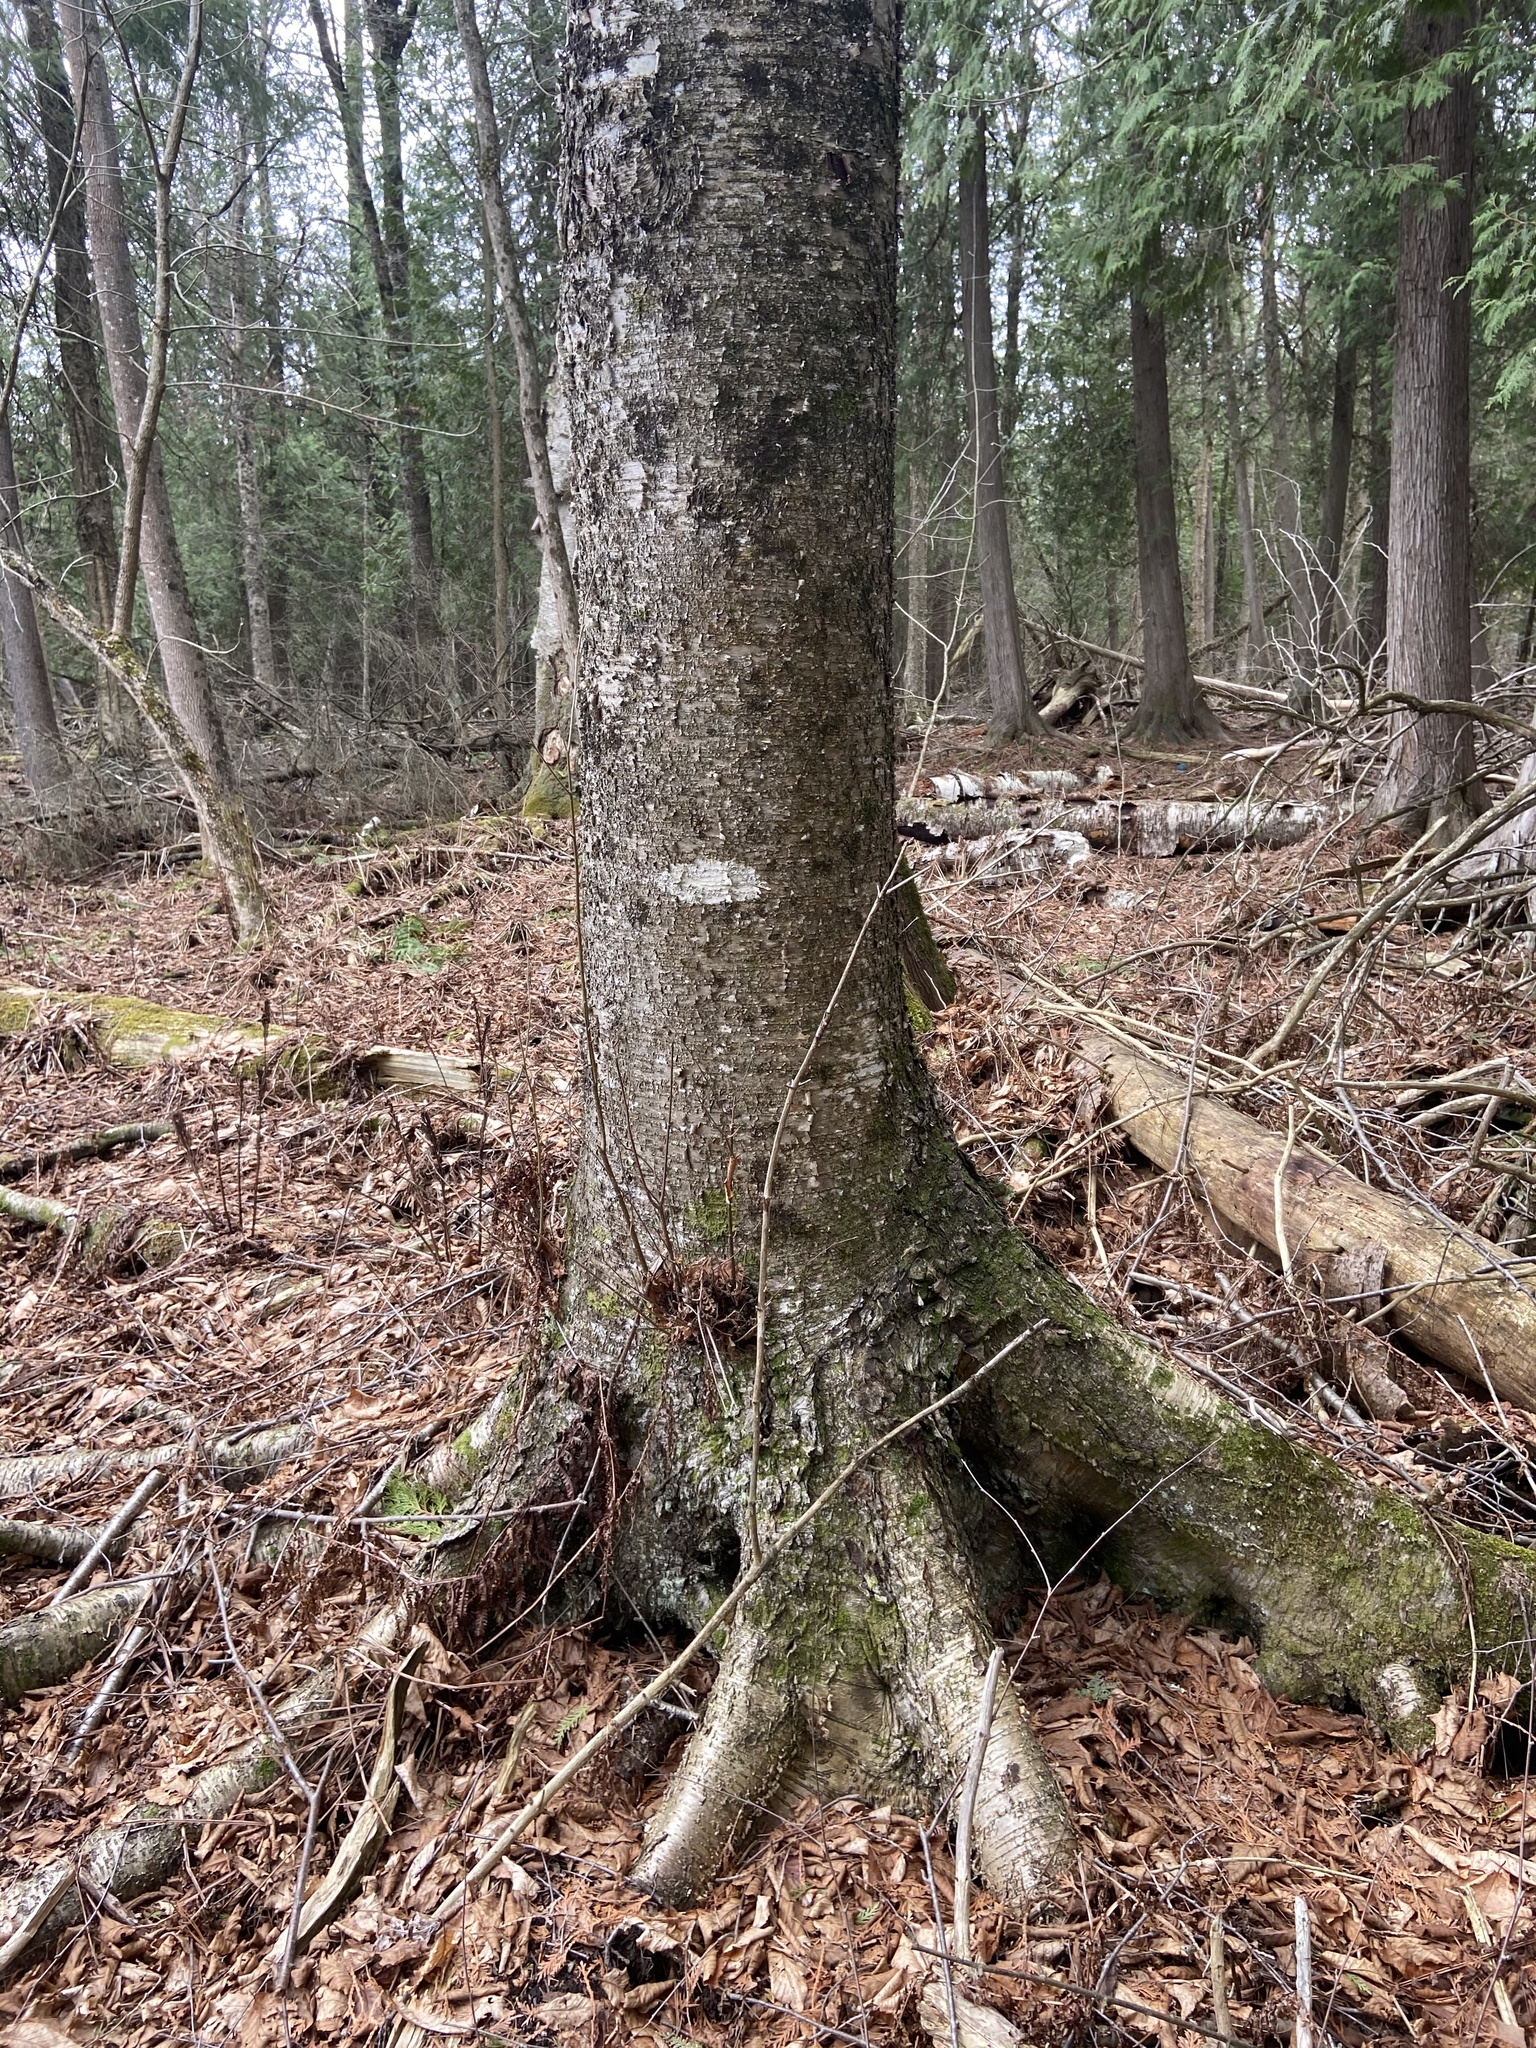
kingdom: Plantae
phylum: Tracheophyta
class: Magnoliopsida
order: Fagales
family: Betulaceae
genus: Betula
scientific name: Betula alleghaniensis
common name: Yellow birch
